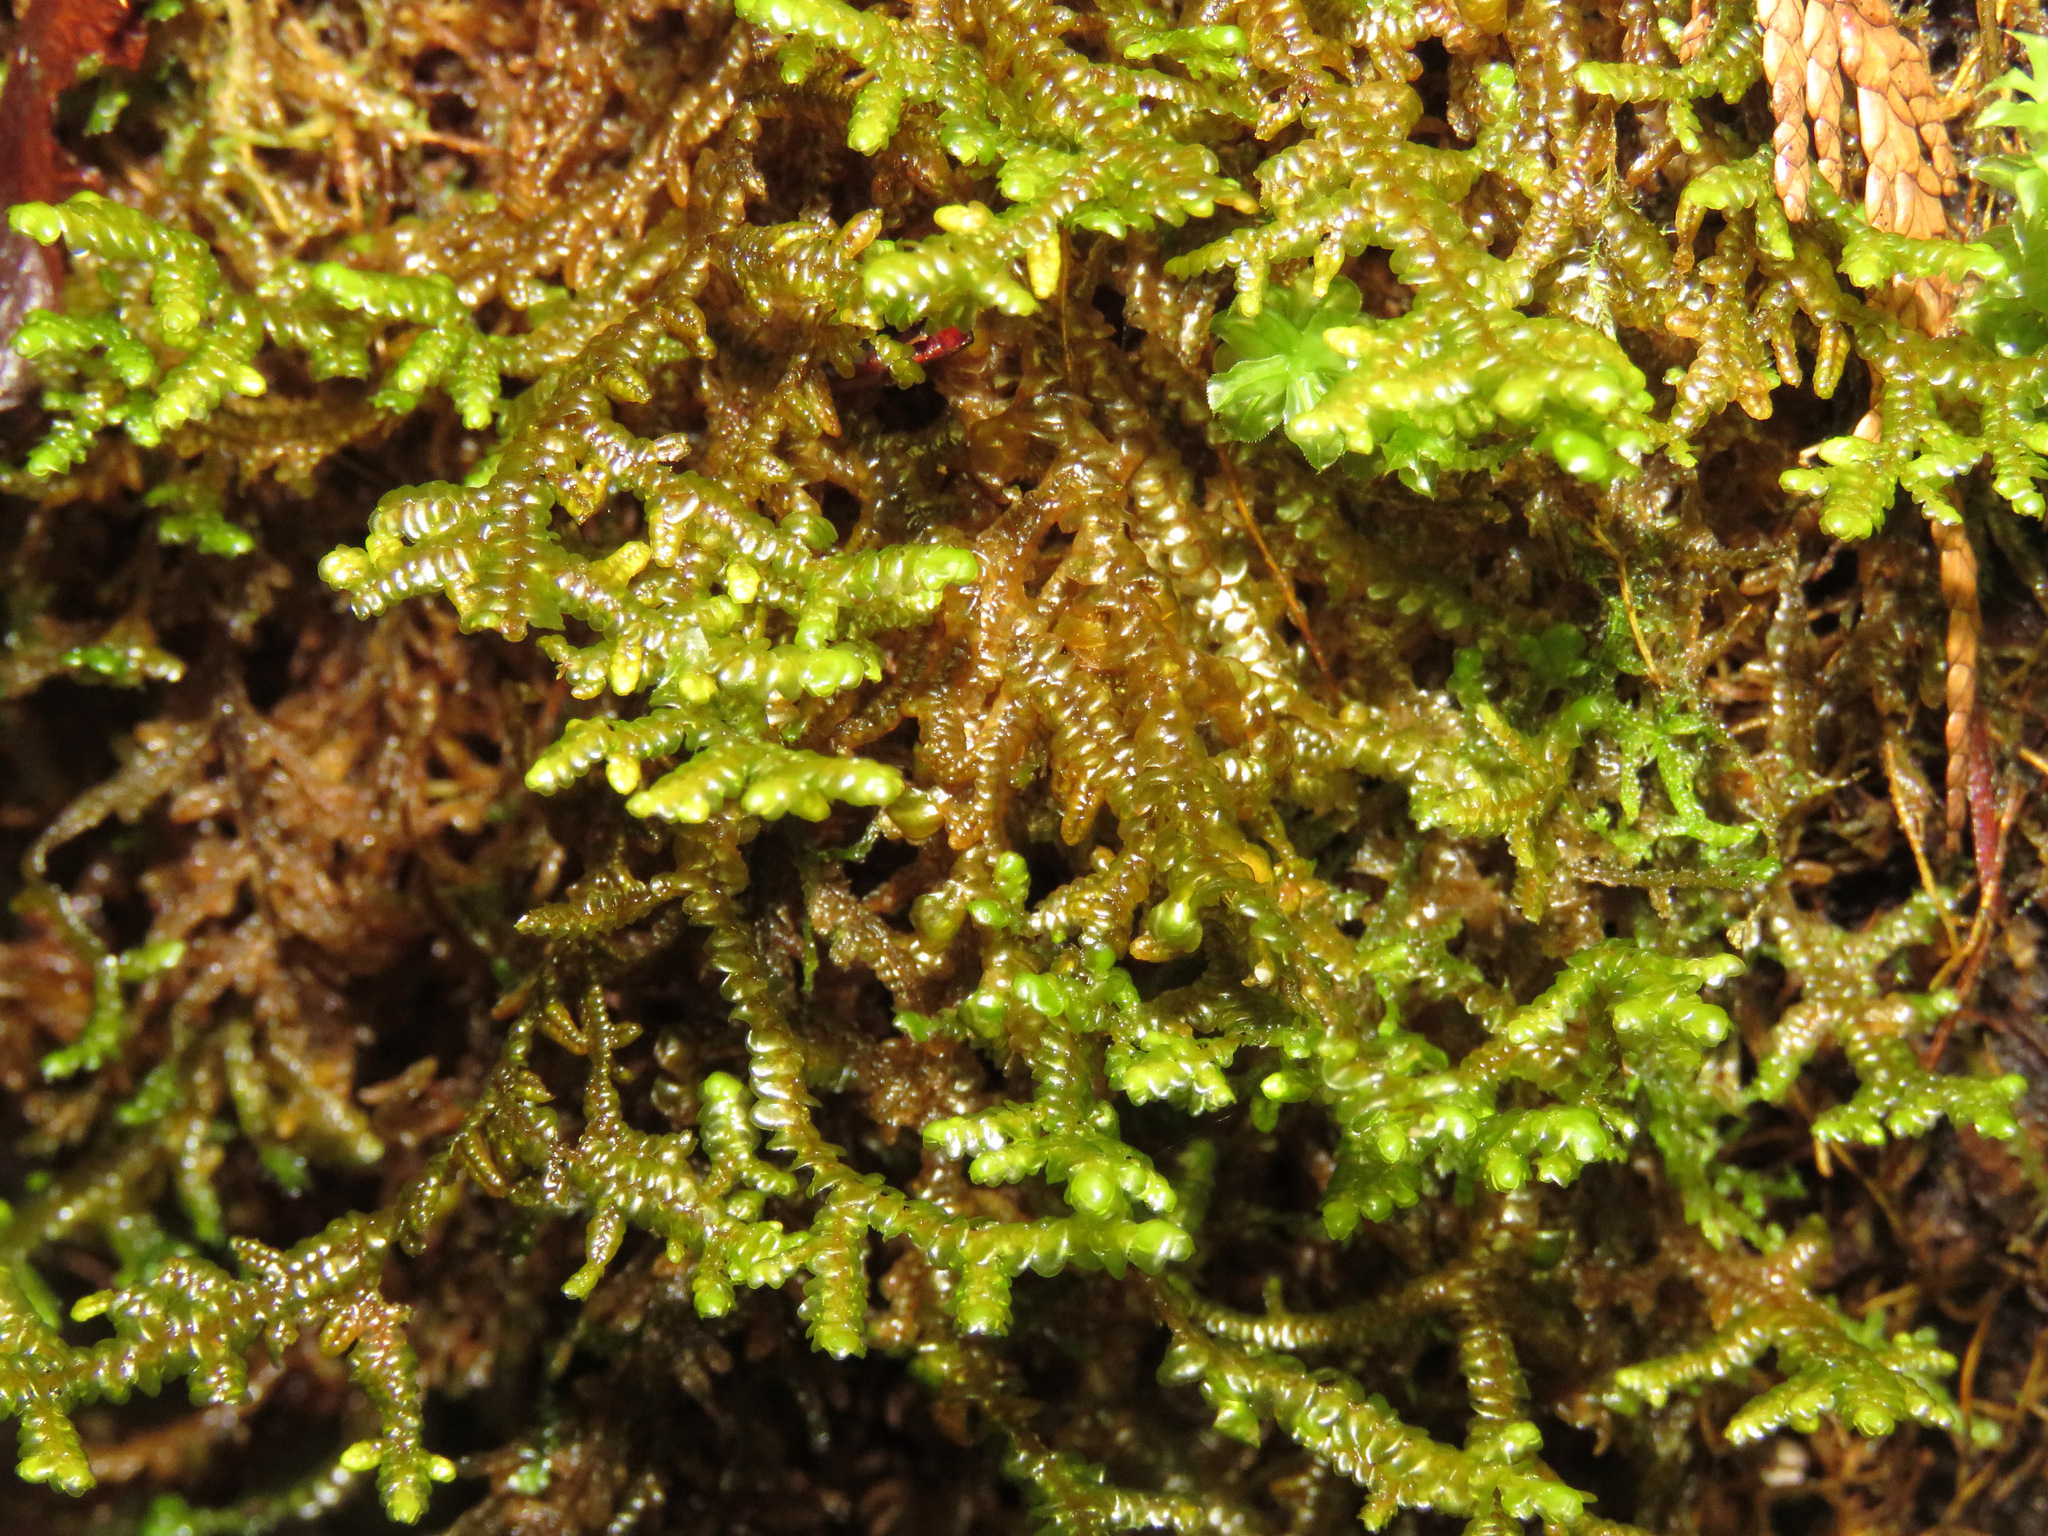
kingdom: Plantae
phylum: Marchantiophyta
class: Jungermanniopsida
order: Porellales
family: Porellaceae
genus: Porella
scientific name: Porella navicularis
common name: Tree ruffle liverwort
